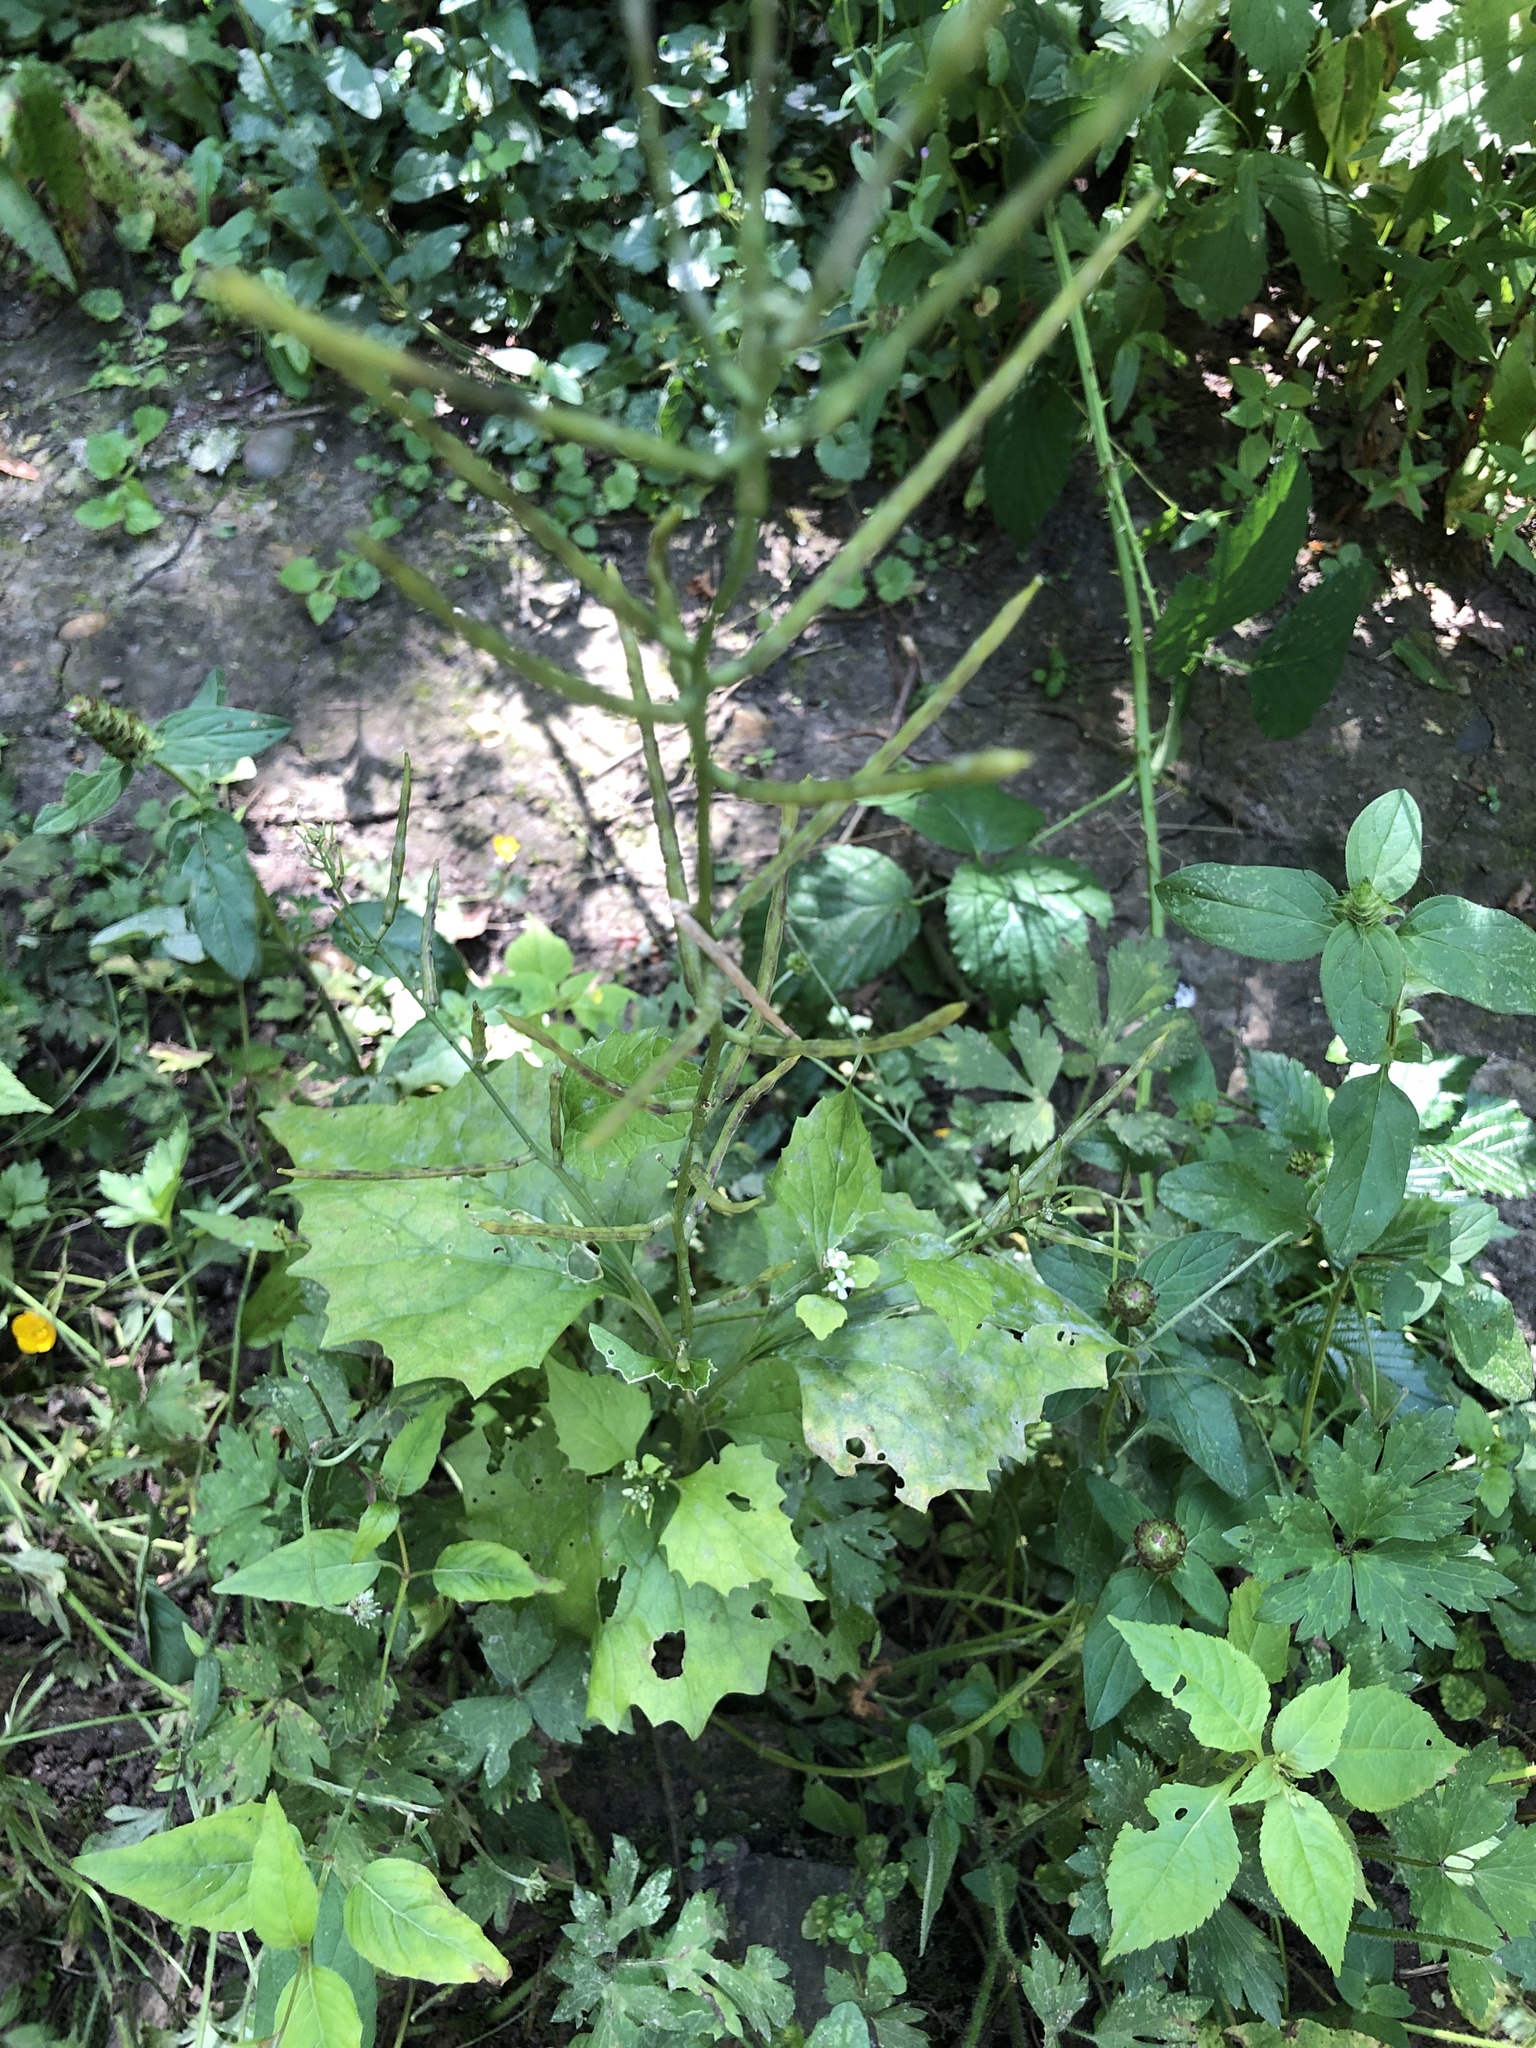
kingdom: Plantae
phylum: Tracheophyta
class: Magnoliopsida
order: Brassicales
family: Brassicaceae
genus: Alliaria
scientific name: Alliaria petiolata
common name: Garlic mustard
